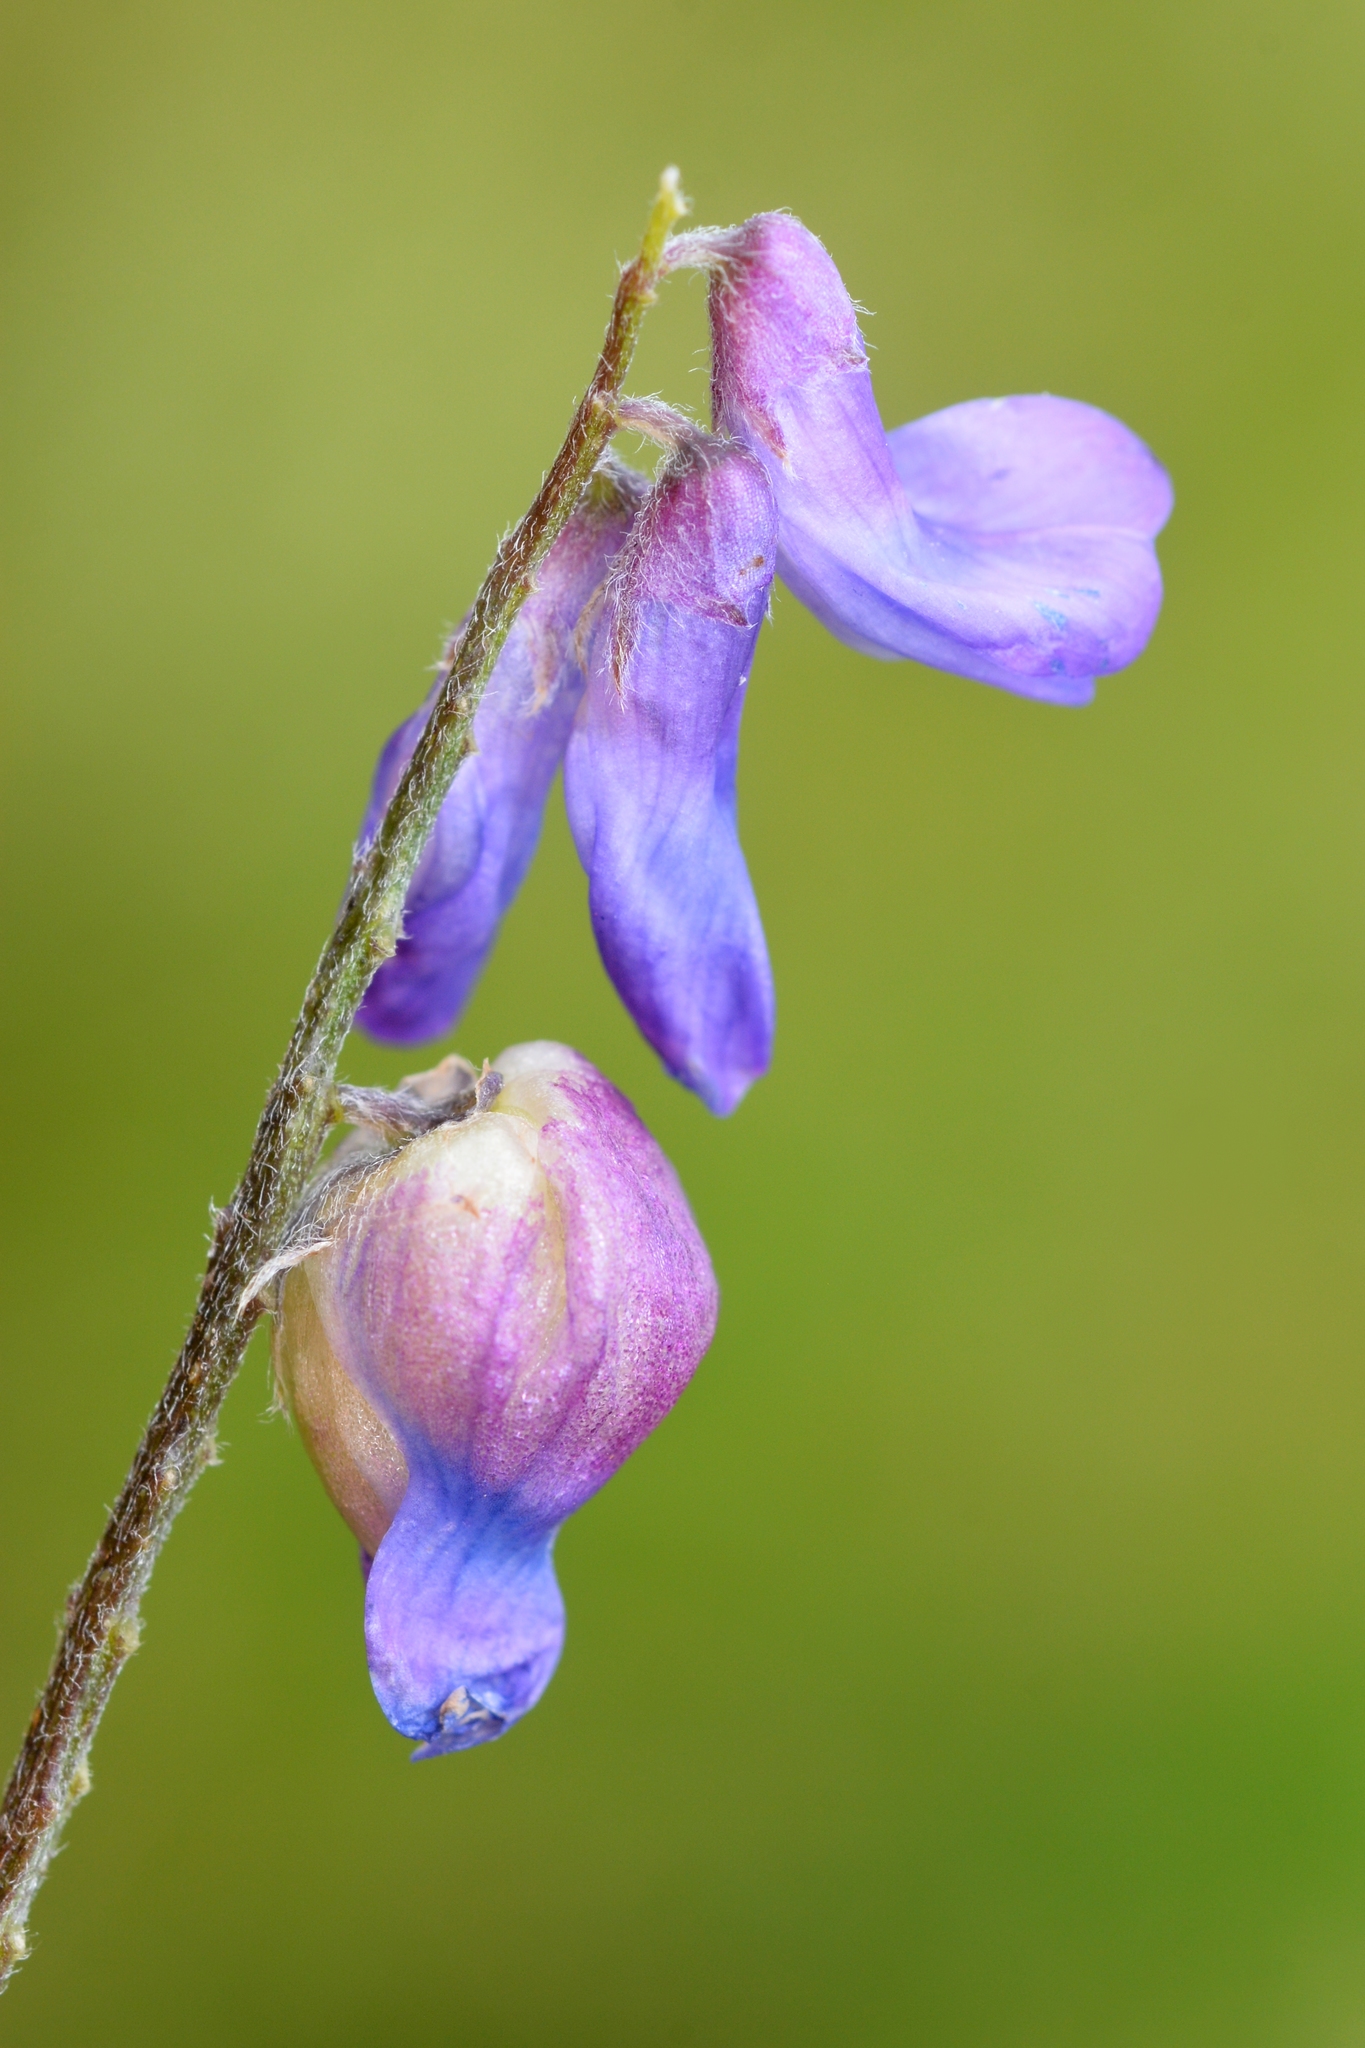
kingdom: Animalia
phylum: Arthropoda
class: Insecta
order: Diptera
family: Cecidomyiidae
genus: Contarinia
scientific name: Contarinia craccae
